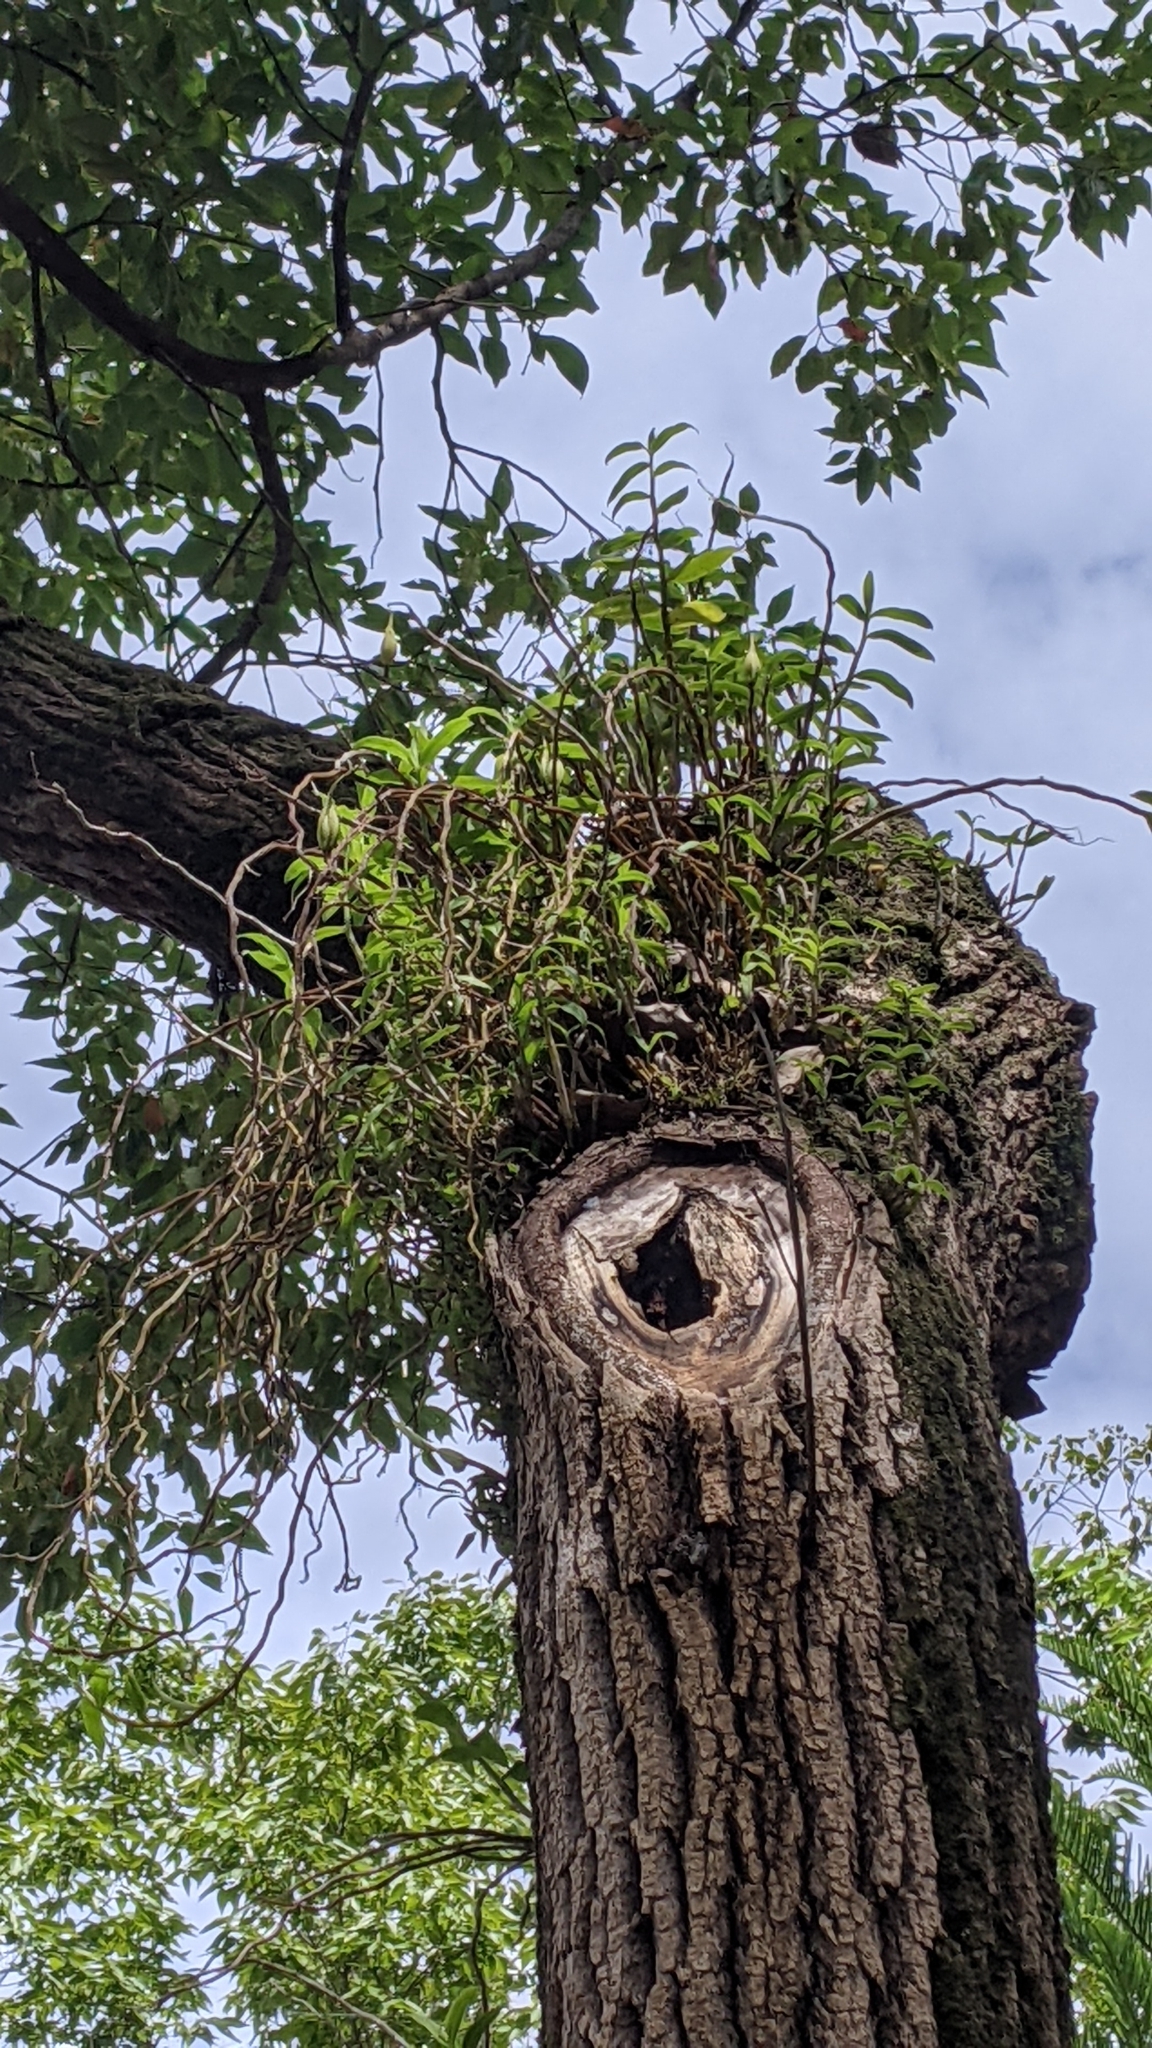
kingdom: Plantae
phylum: Tracheophyta
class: Liliopsida
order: Asparagales
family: Orchidaceae
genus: Dendrobium
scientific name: Dendrobium officinale
